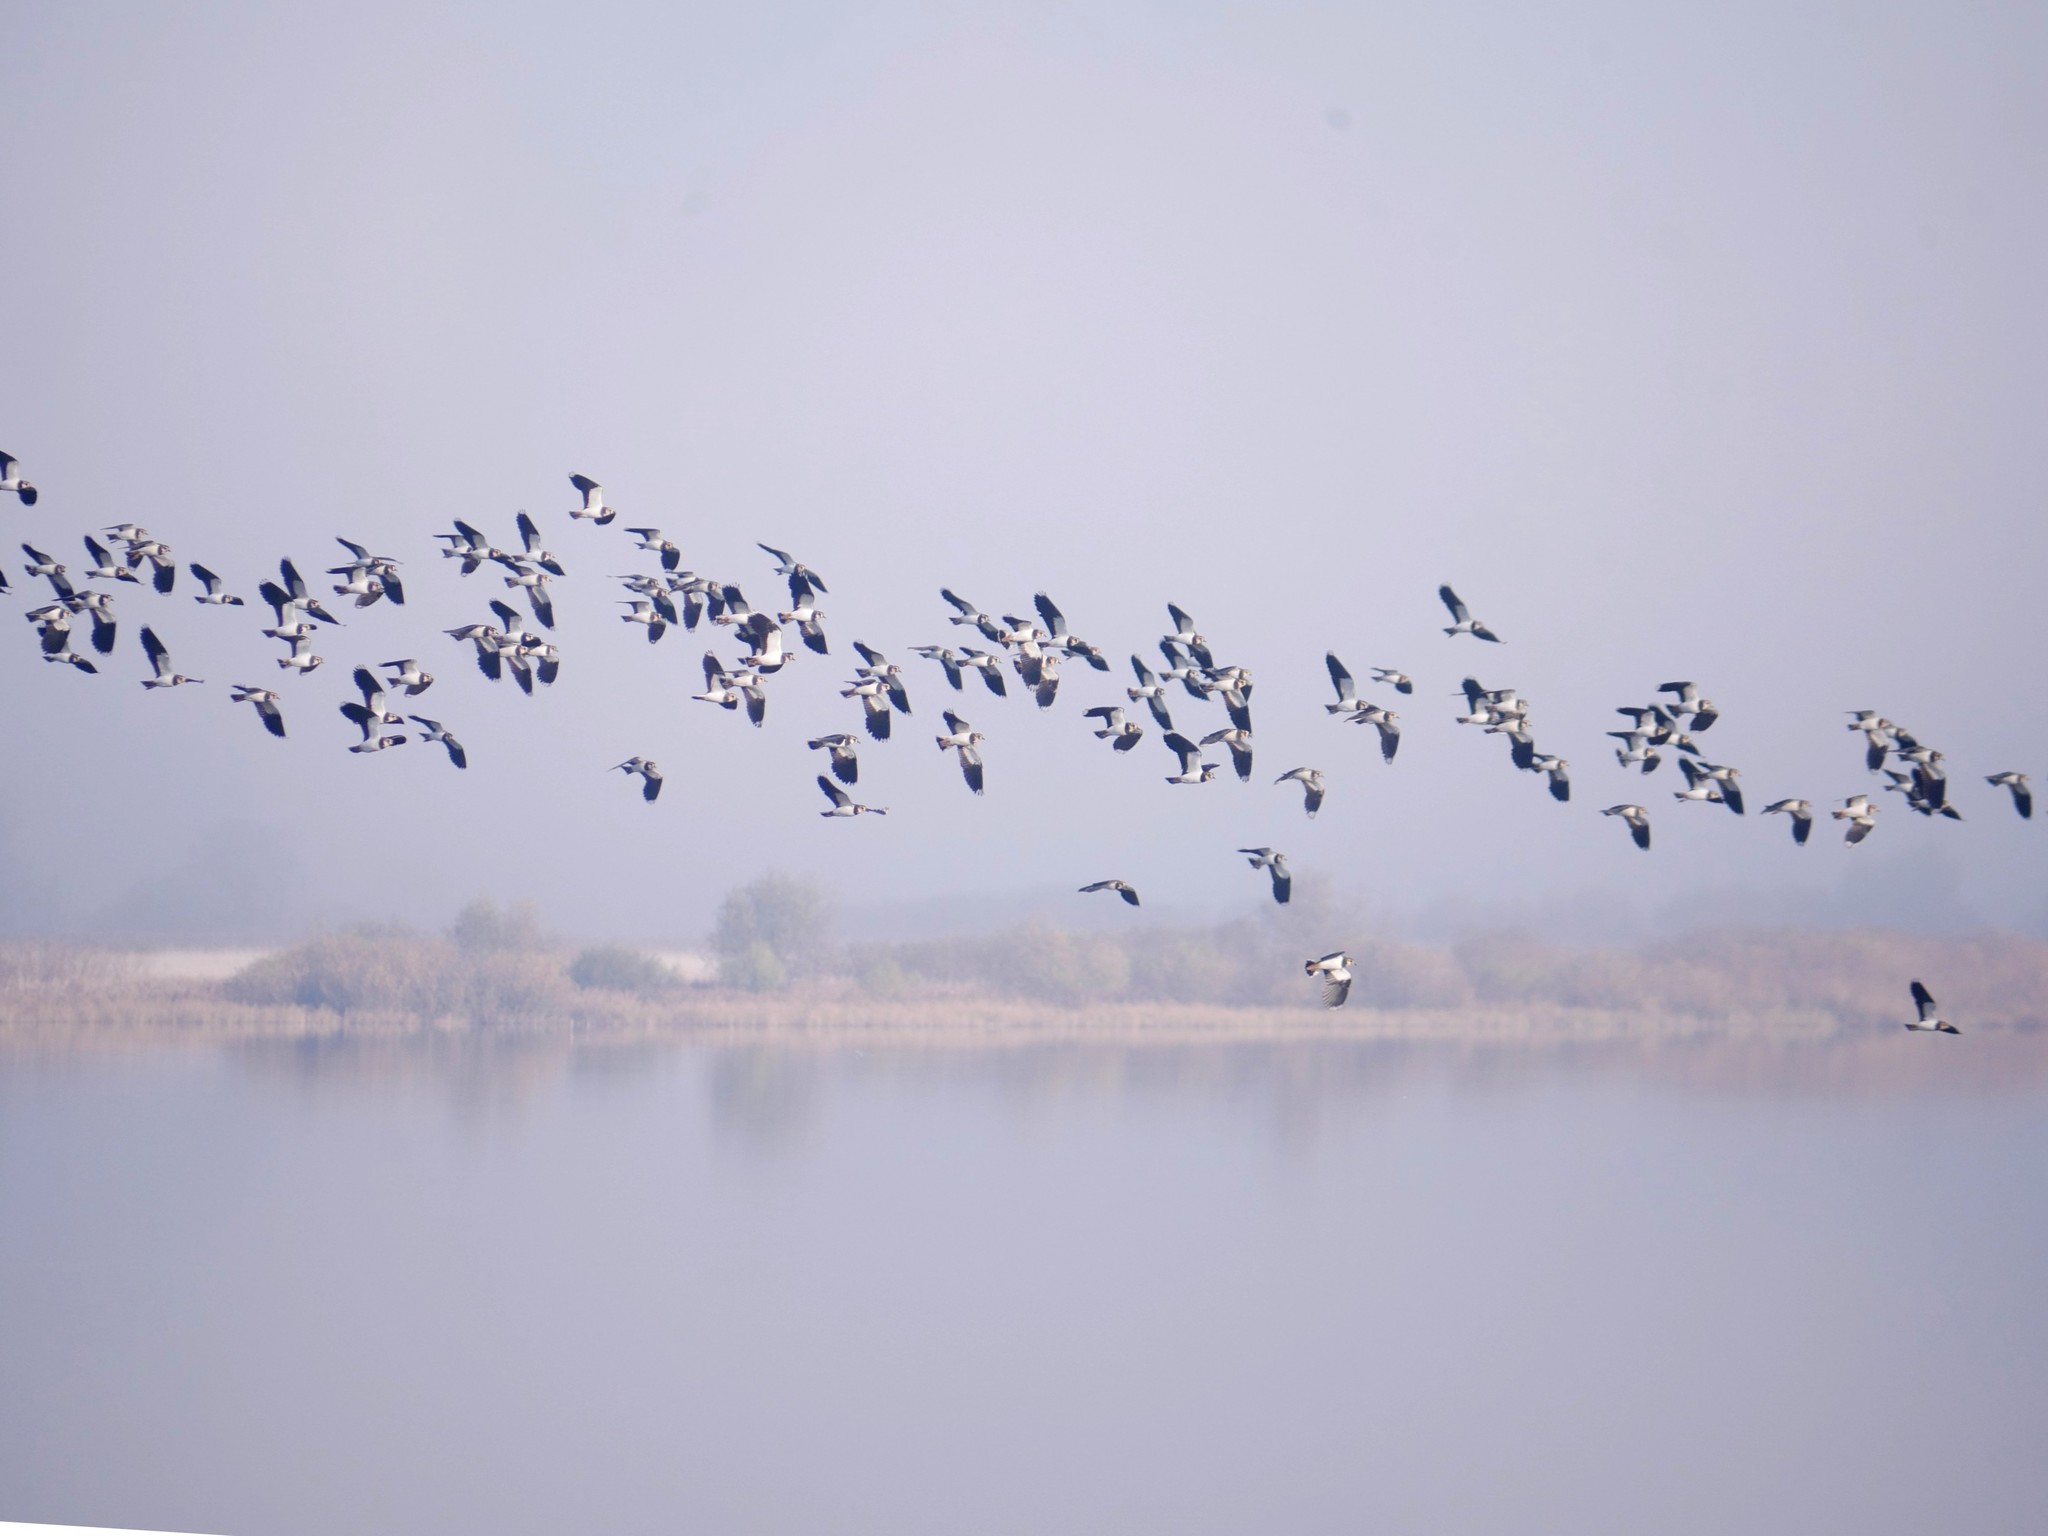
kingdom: Animalia
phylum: Chordata
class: Aves
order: Charadriiformes
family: Charadriidae
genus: Vanellus
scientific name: Vanellus vanellus
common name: Northern lapwing
